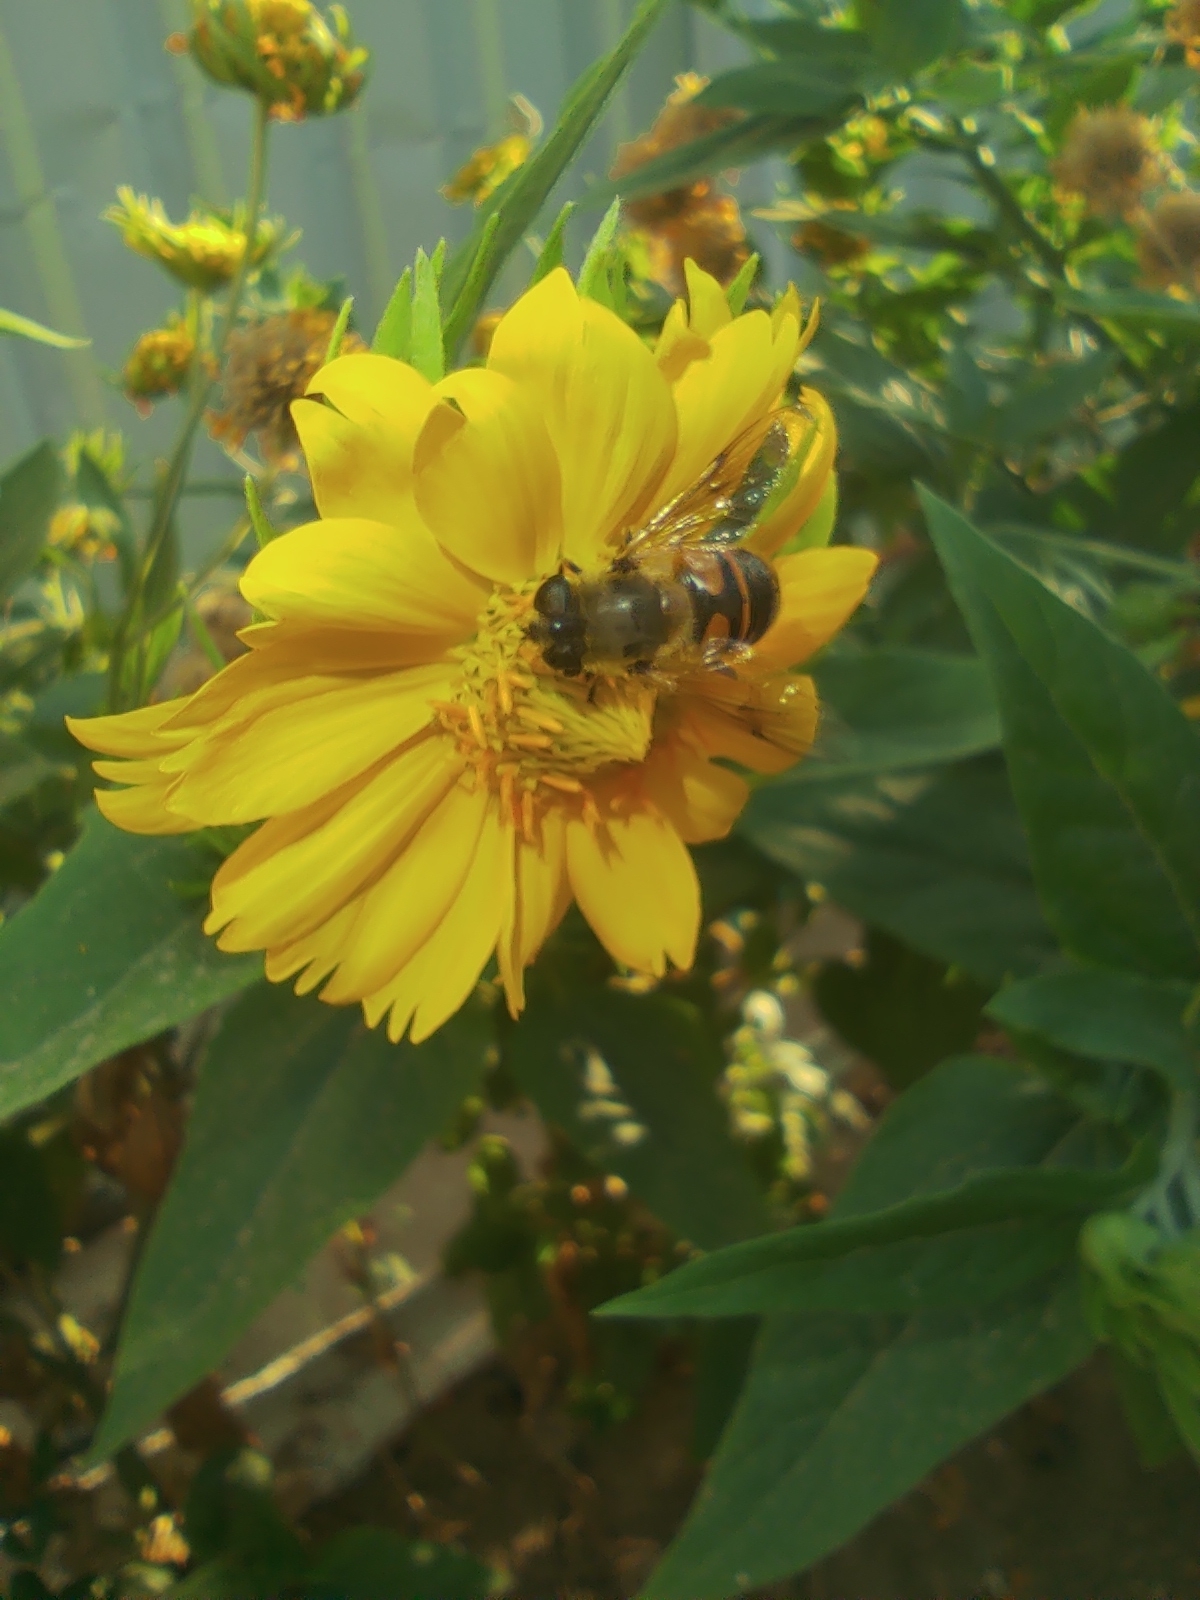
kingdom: Animalia
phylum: Arthropoda
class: Insecta
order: Diptera
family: Syrphidae
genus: Eristalis
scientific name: Eristalis tenax
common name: Drone fly
